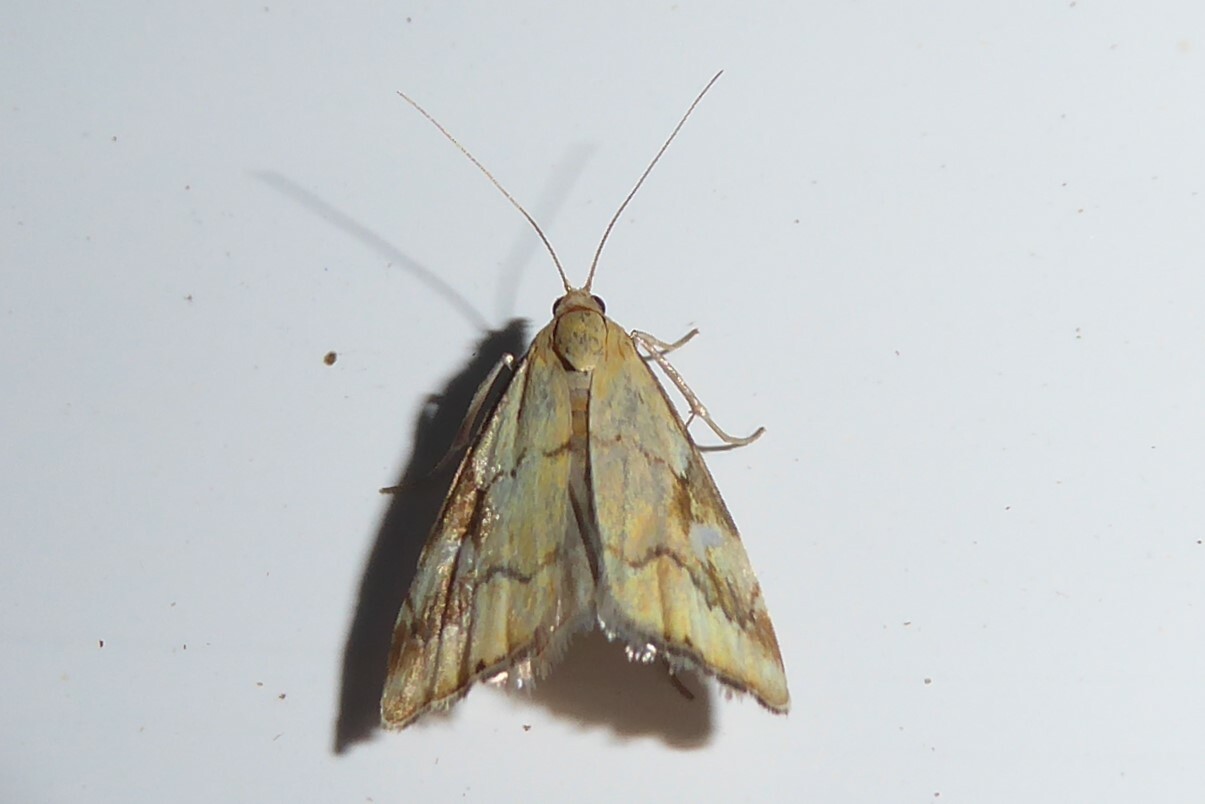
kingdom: Animalia
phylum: Arthropoda
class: Insecta
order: Lepidoptera
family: Crambidae
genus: Glaucocharis
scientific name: Glaucocharis lepidella
